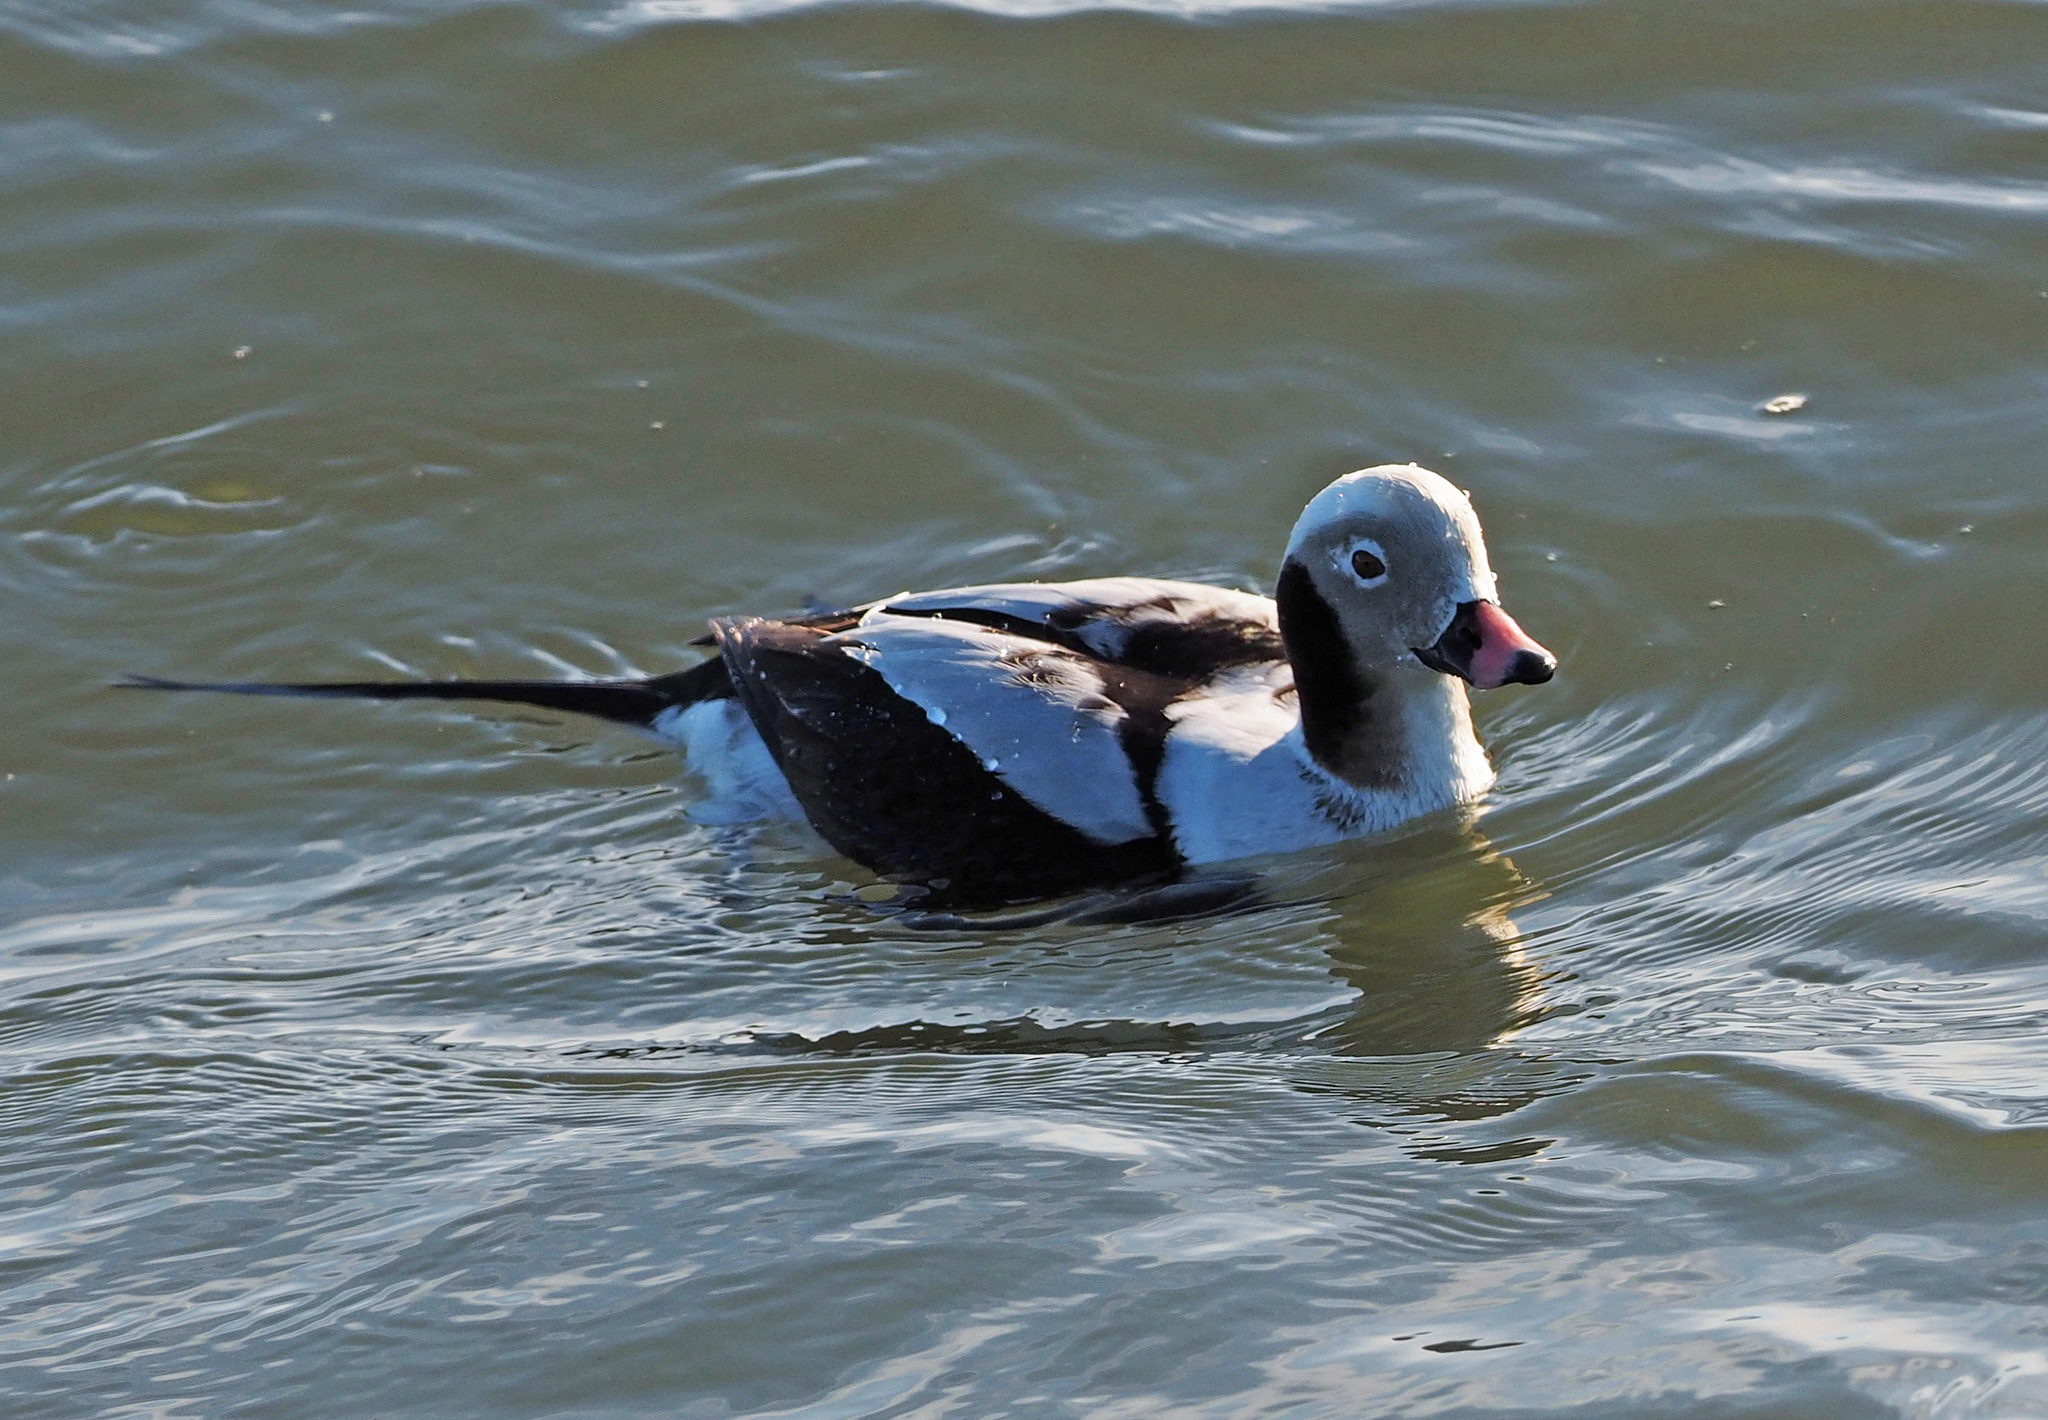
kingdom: Animalia
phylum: Chordata
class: Aves
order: Anseriformes
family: Anatidae
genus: Clangula
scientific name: Clangula hyemalis
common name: Long-tailed duck
